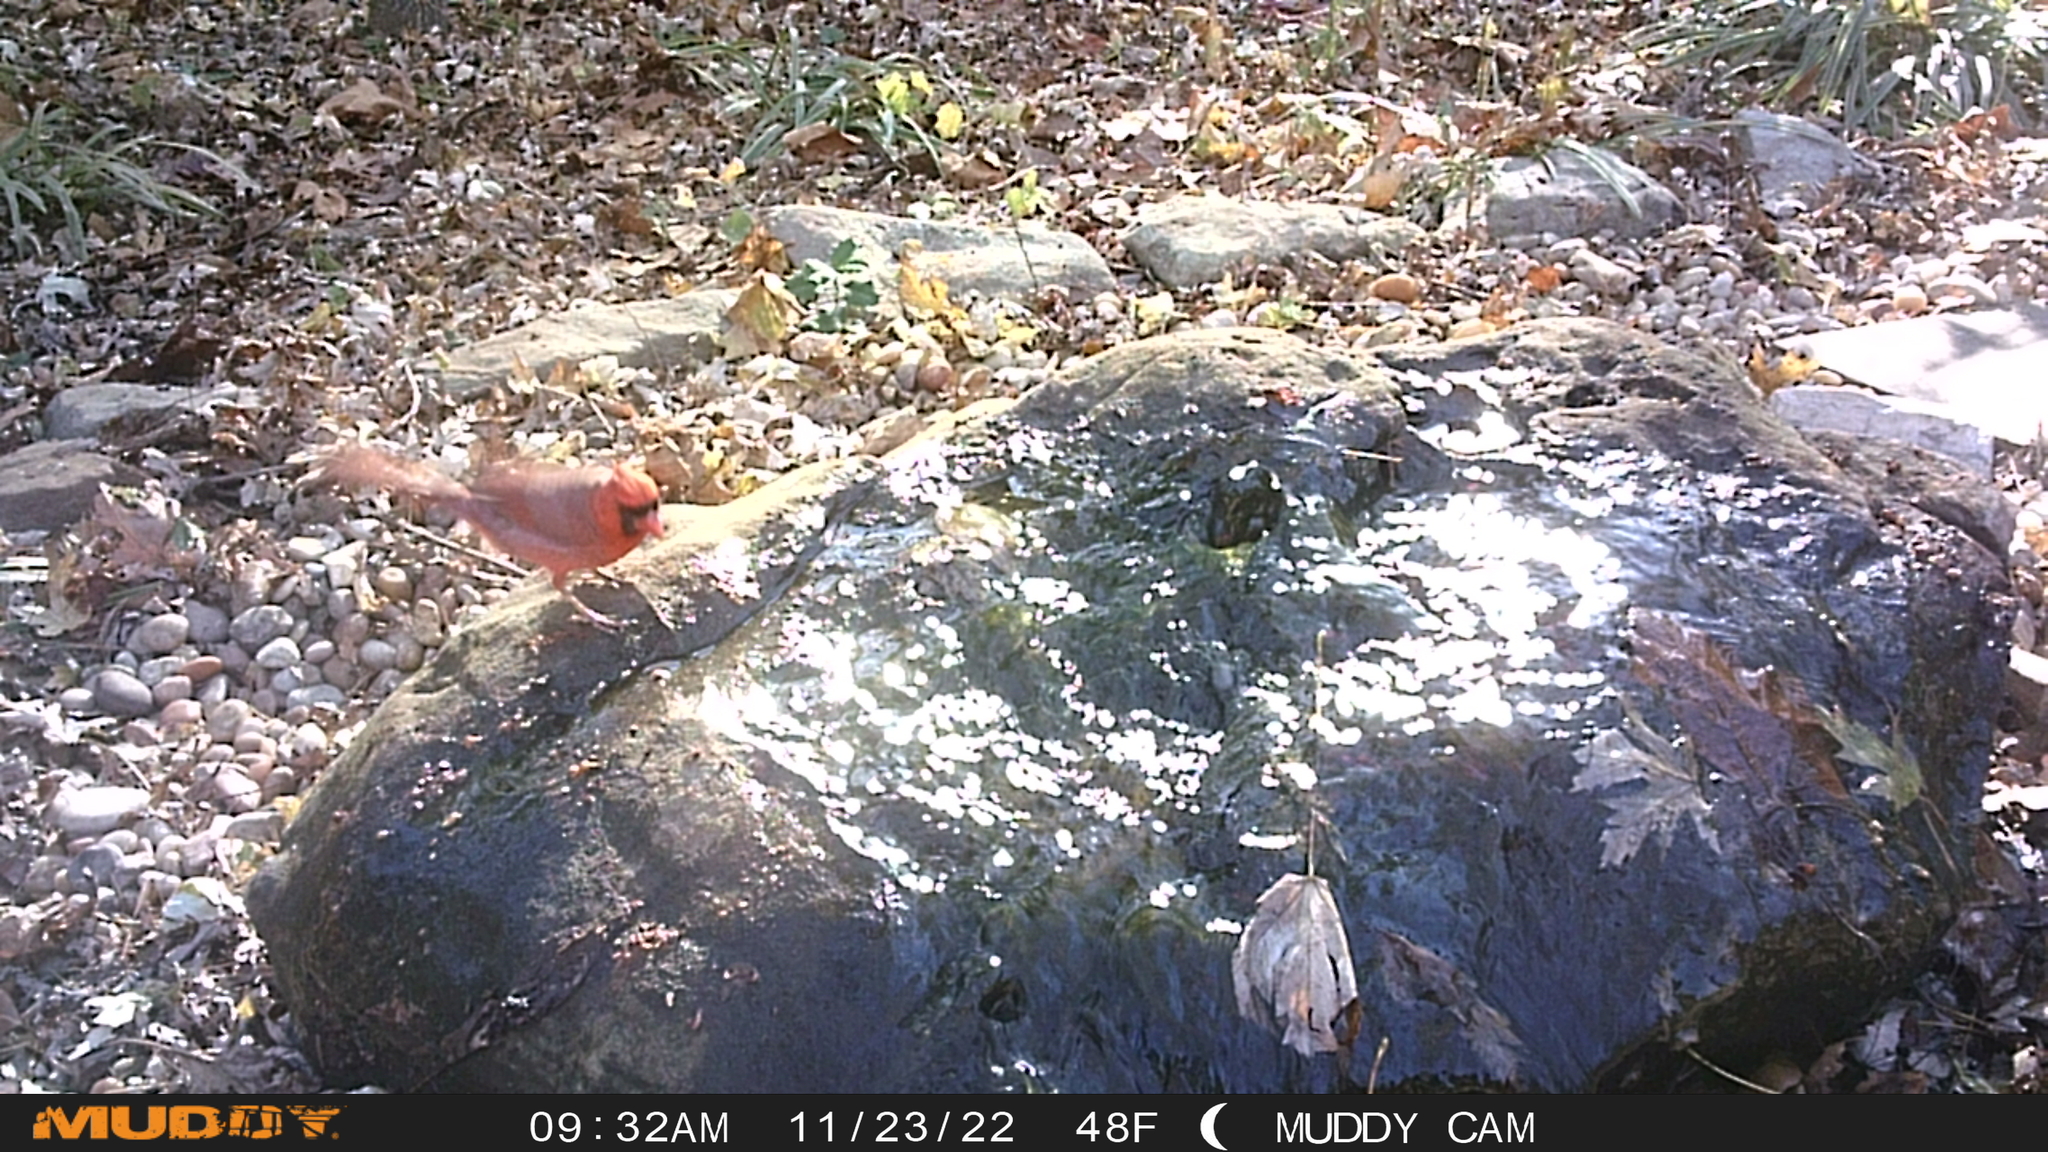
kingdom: Animalia
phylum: Chordata
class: Aves
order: Passeriformes
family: Cardinalidae
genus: Cardinalis
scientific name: Cardinalis cardinalis
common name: Northern cardinal
